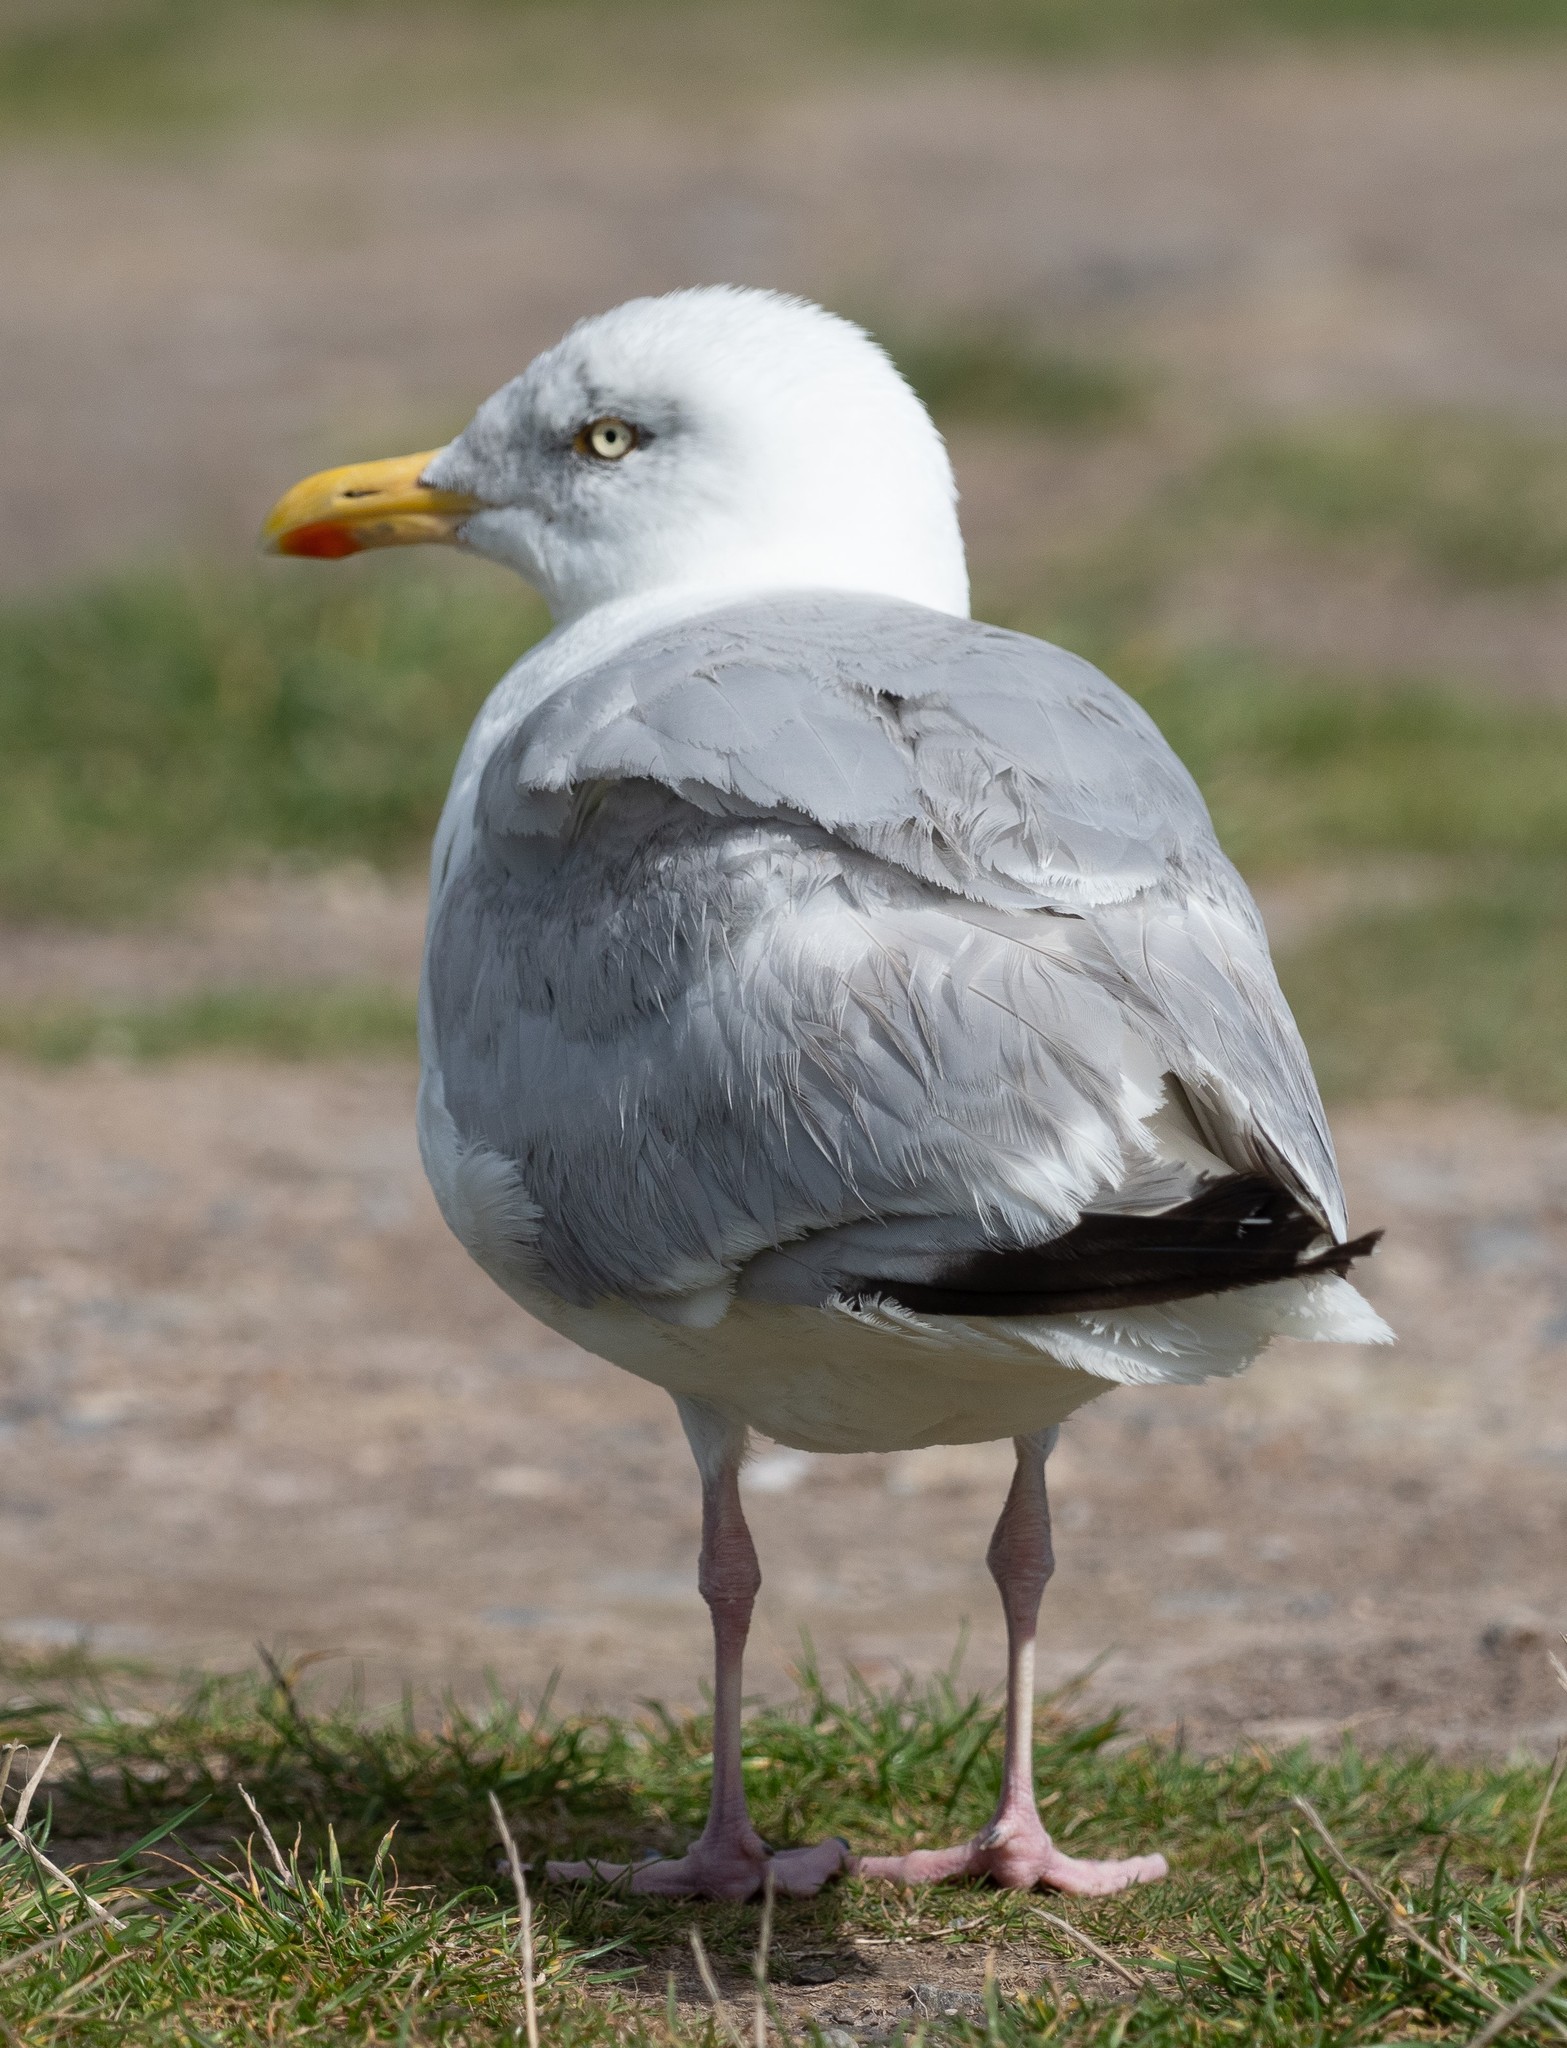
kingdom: Animalia
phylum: Chordata
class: Aves
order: Charadriiformes
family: Laridae
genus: Larus
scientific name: Larus argentatus
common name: Herring gull
